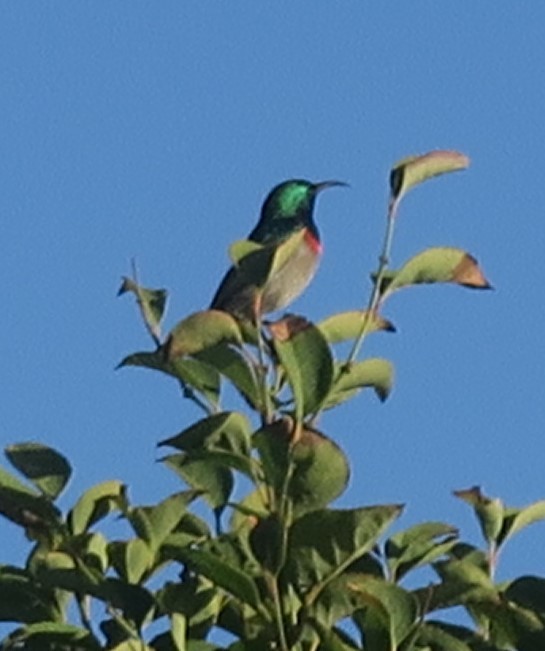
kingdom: Animalia
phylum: Chordata
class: Aves
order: Passeriformes
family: Nectariniidae
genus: Cinnyris
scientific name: Cinnyris chalybeus
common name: Southern double-collared sunbird
